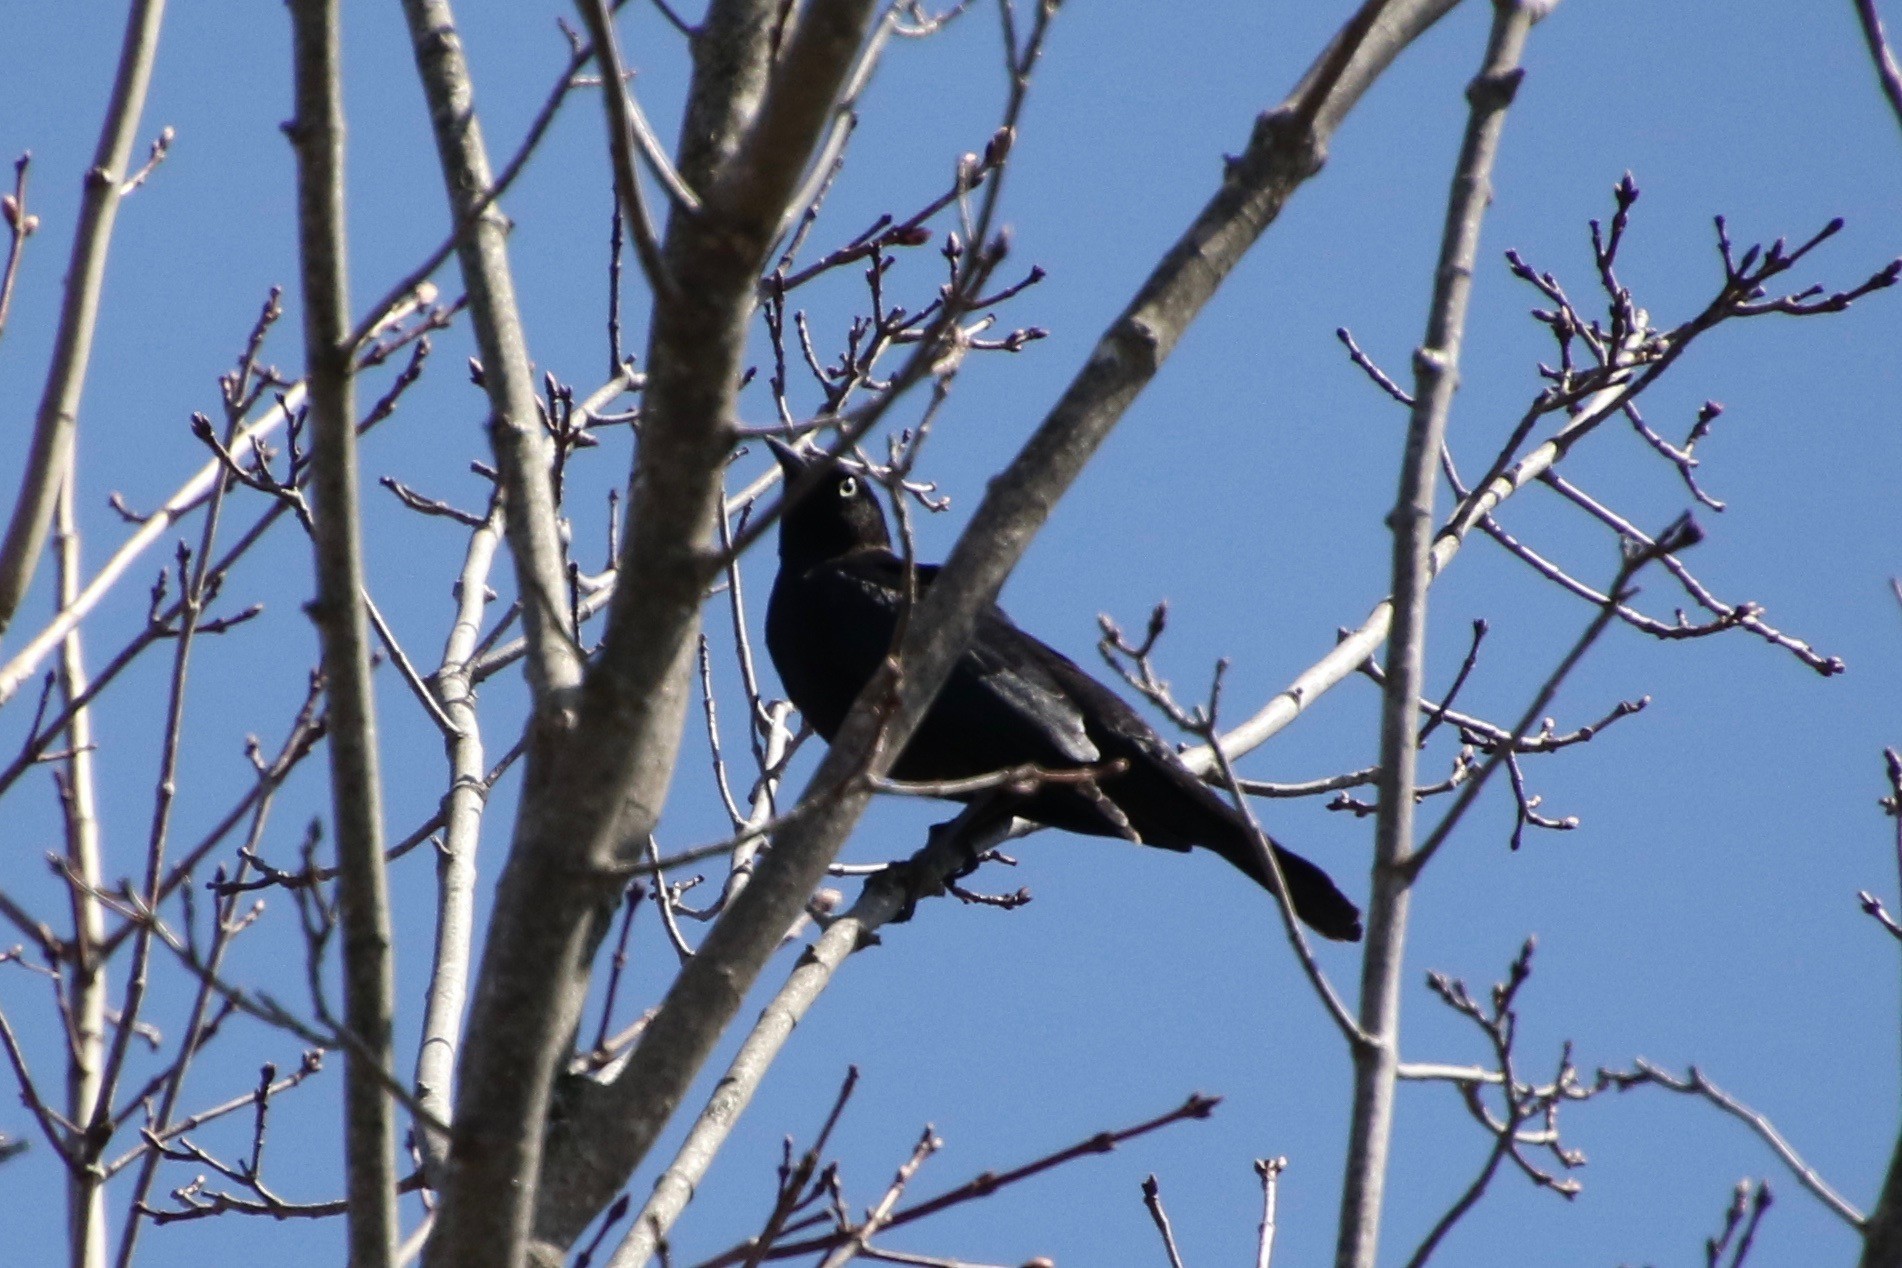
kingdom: Animalia
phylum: Chordata
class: Aves
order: Passeriformes
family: Icteridae
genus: Euphagus
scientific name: Euphagus carolinus
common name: Rusty blackbird
